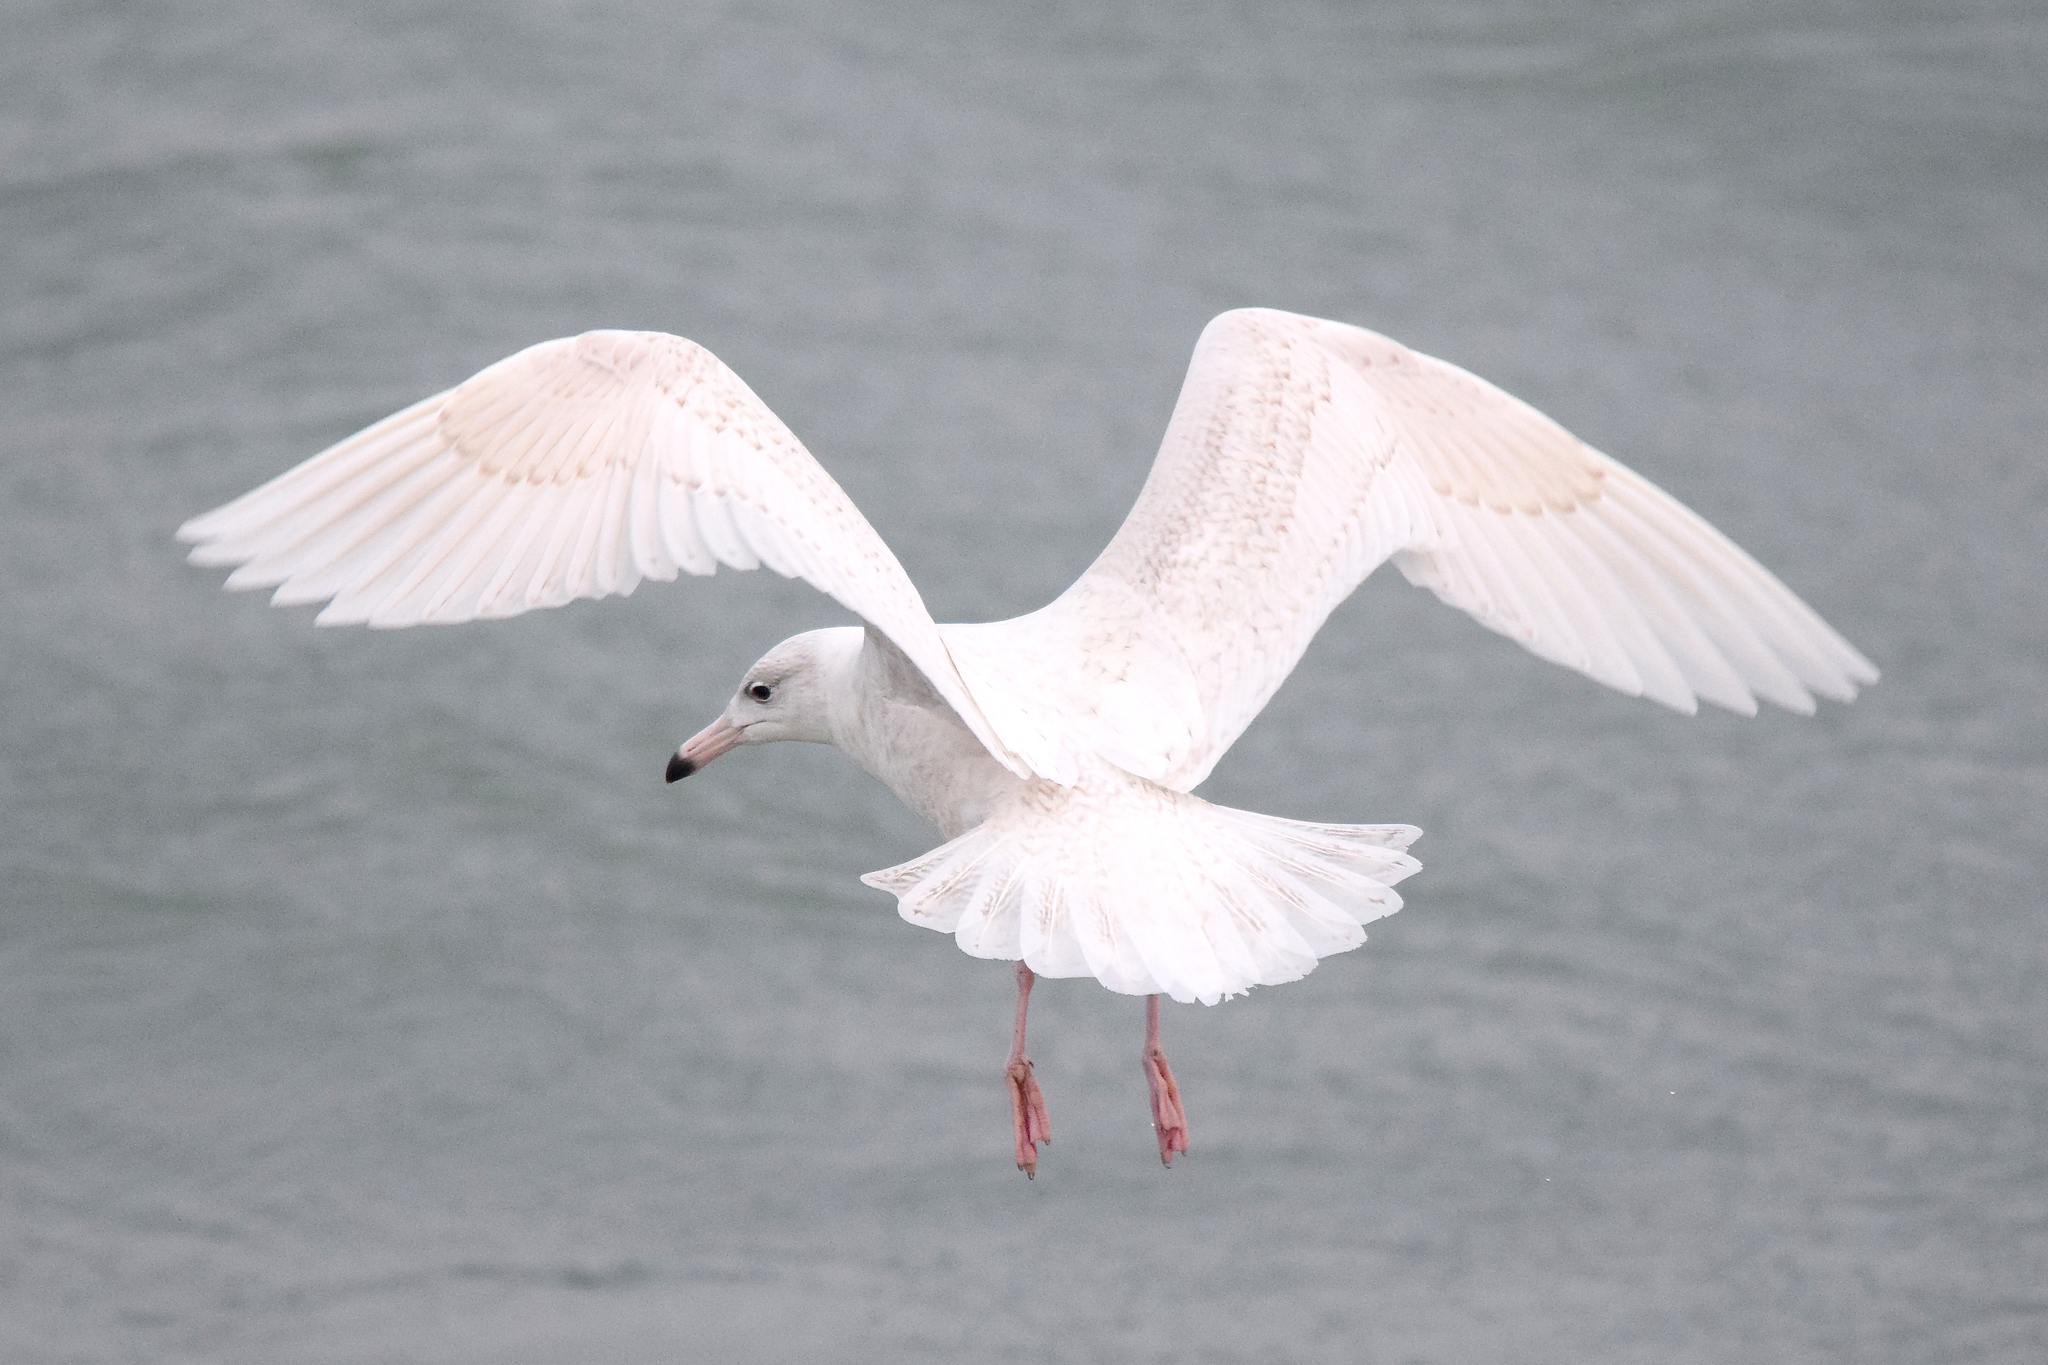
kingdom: Animalia
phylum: Chordata
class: Aves
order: Charadriiformes
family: Laridae
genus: Larus
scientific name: Larus hyperboreus
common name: Glaucous gull
